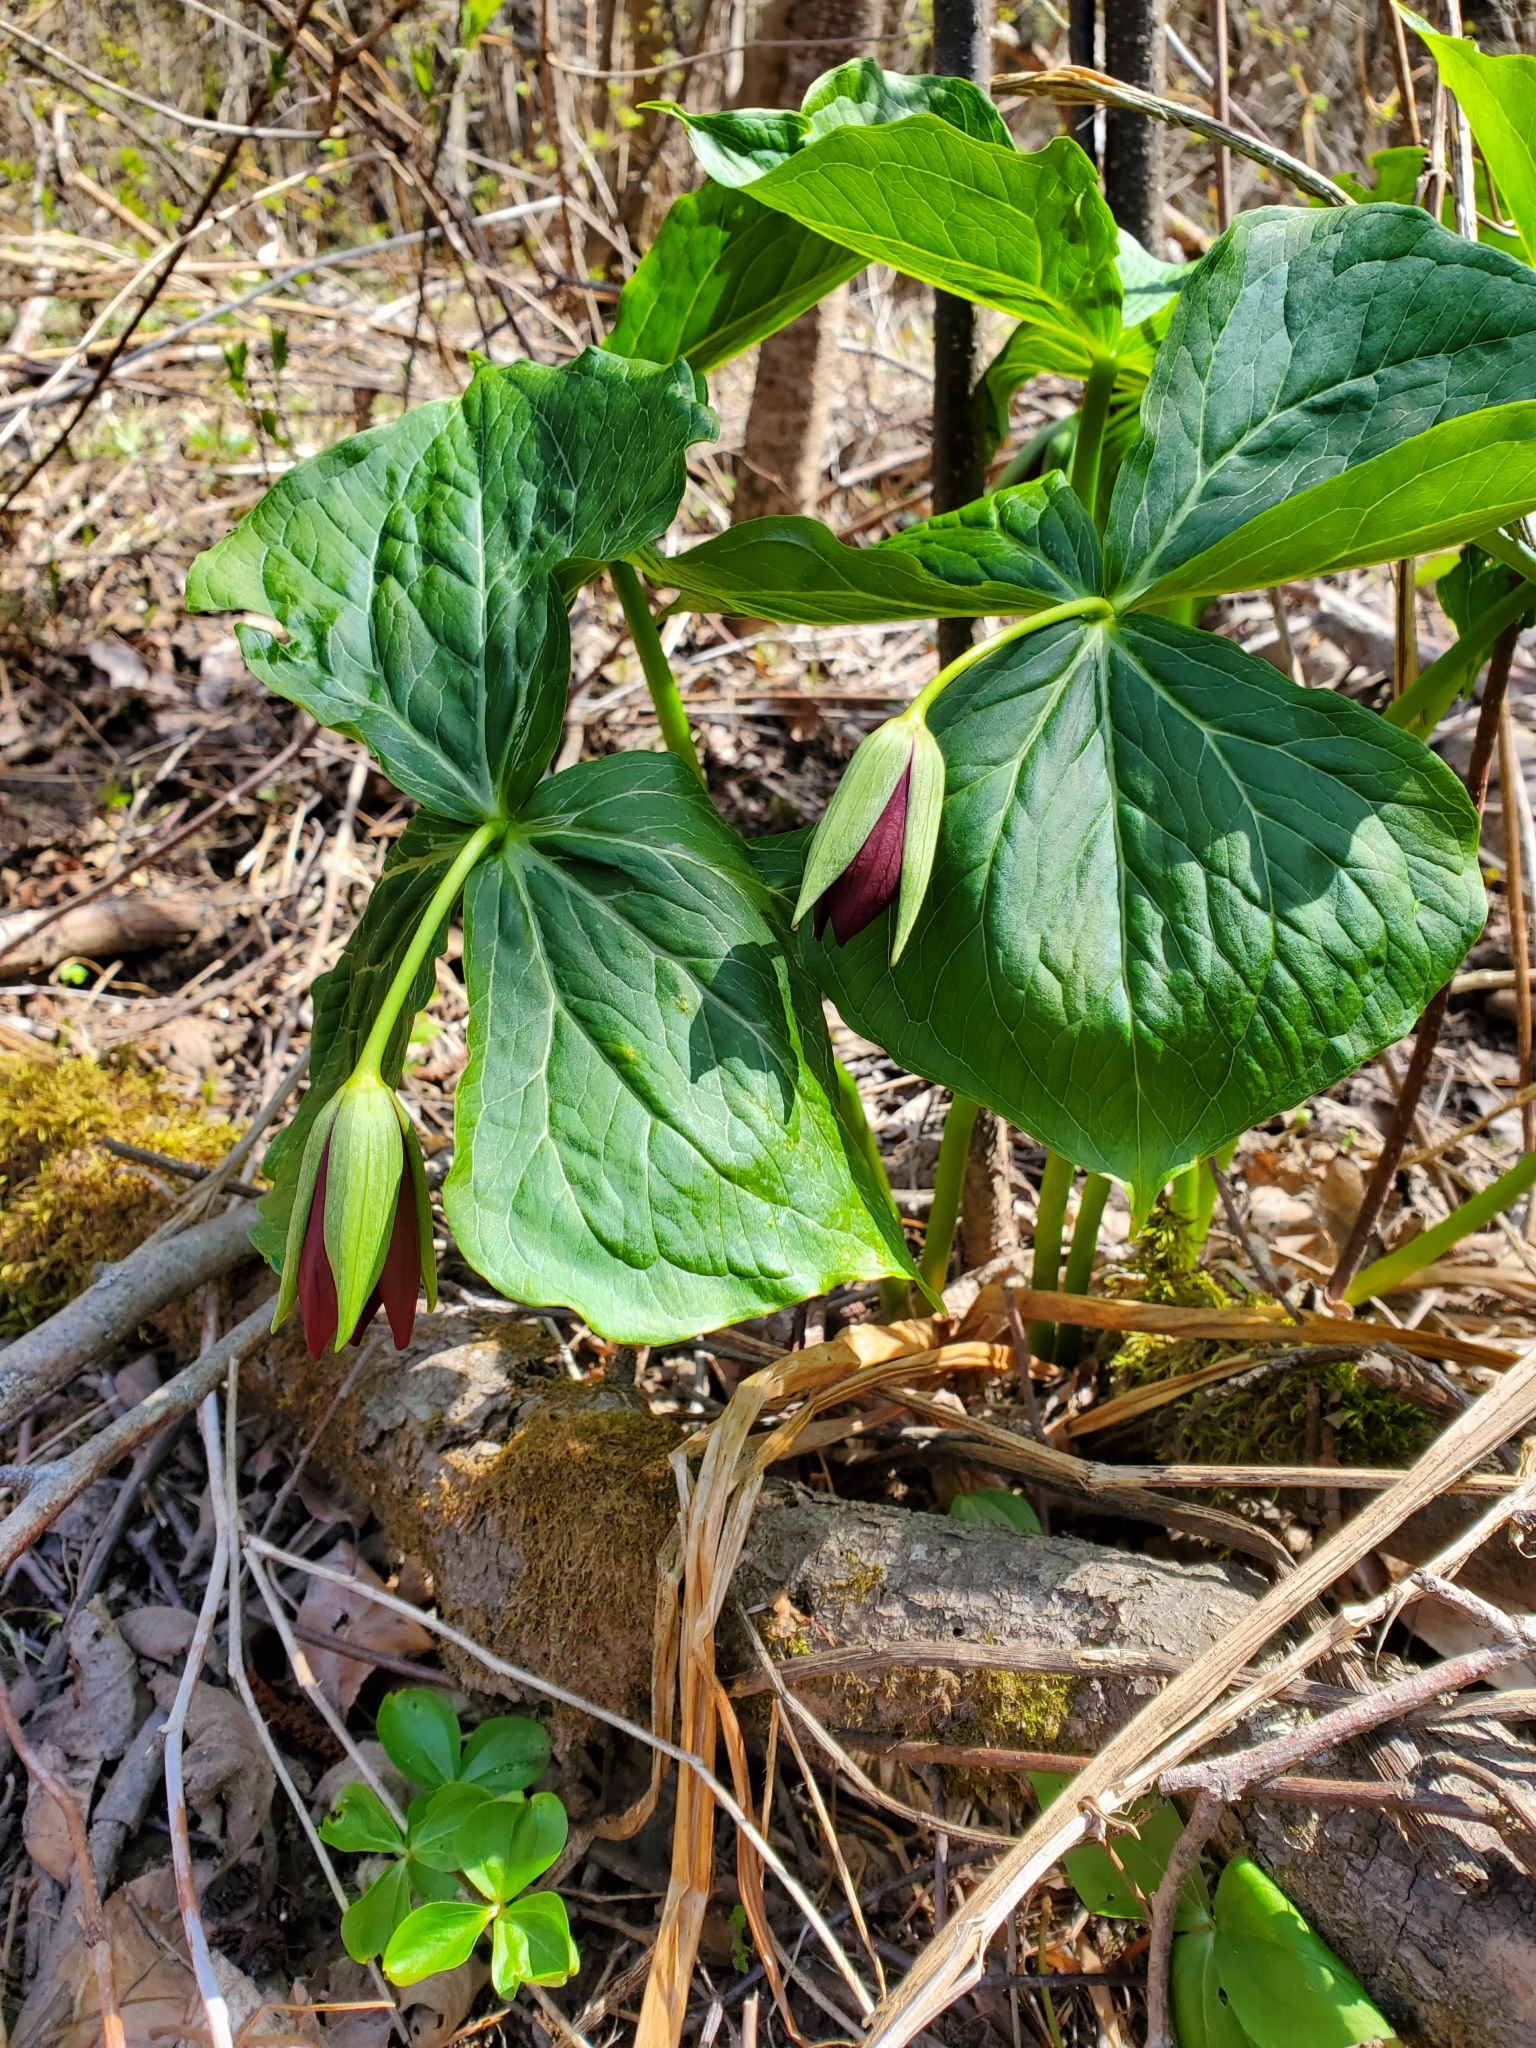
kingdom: Plantae
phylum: Tracheophyta
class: Liliopsida
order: Liliales
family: Melanthiaceae
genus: Trillium
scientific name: Trillium erectum
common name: Purple trillium
